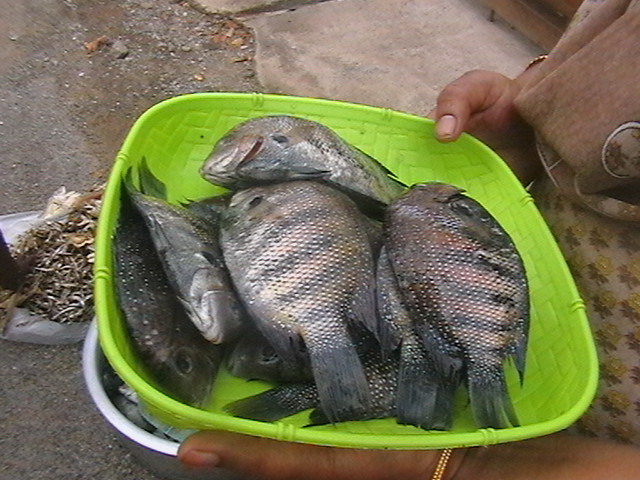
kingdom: Animalia
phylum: Chordata
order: Perciformes
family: Cichlidae
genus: Etroplus
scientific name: Etroplus suratensis
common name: Green chromide
